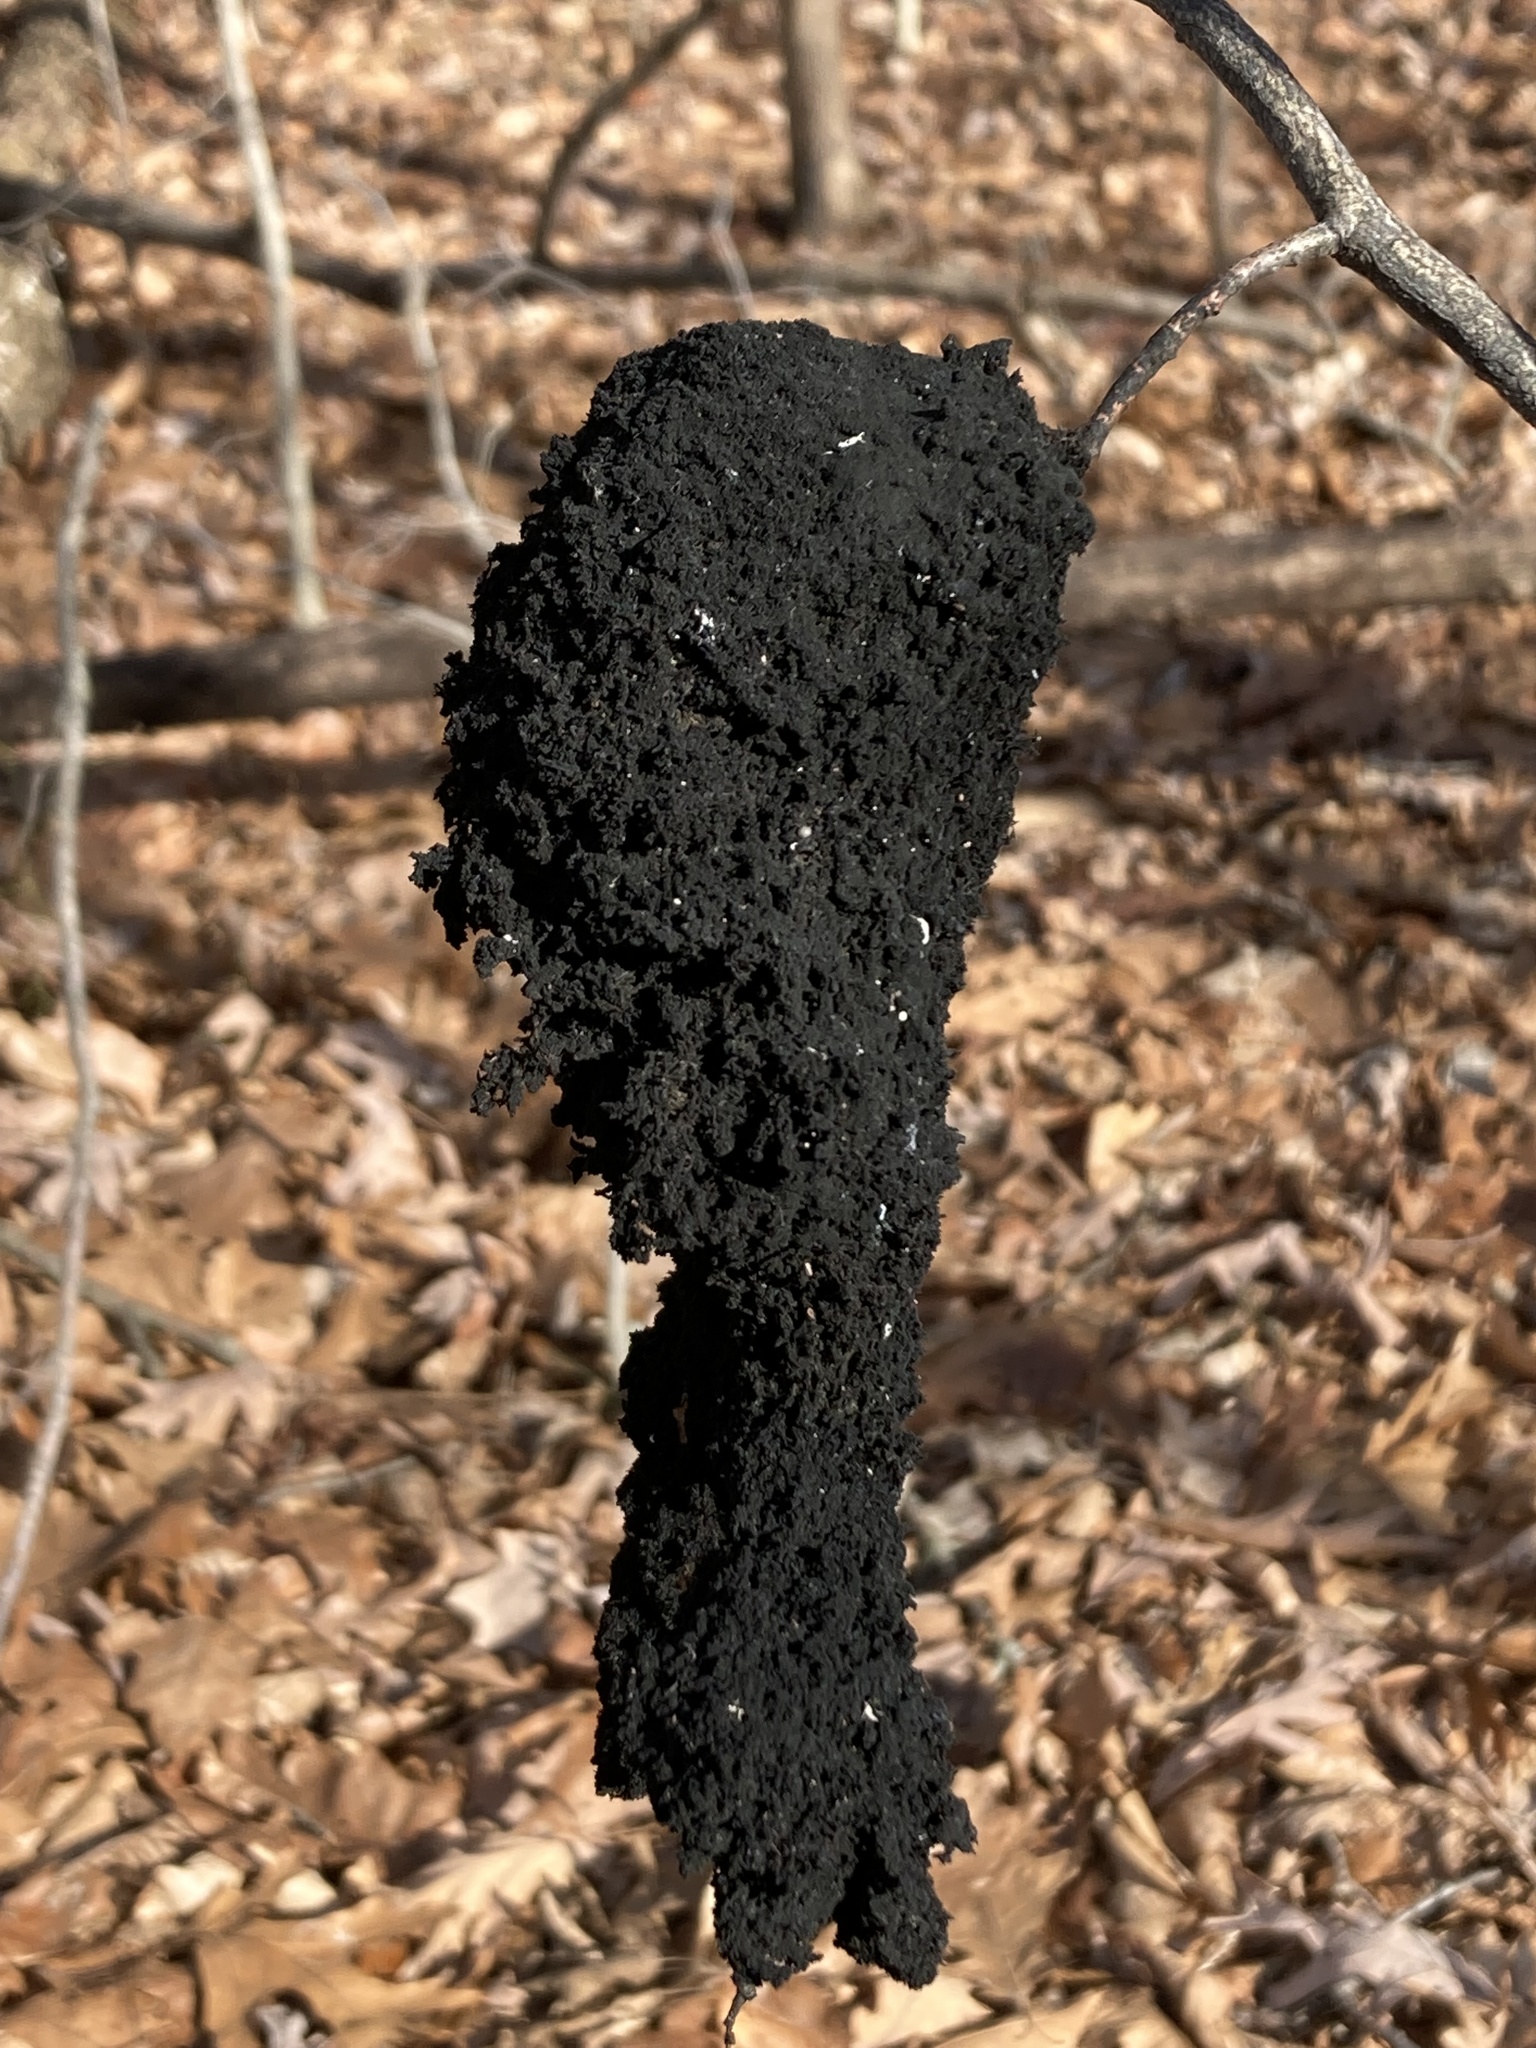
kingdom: Fungi
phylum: Ascomycota
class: Dothideomycetes
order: Capnodiales
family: Capnodiaceae
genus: Scorias
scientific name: Scorias spongiosa
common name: Black sooty mold
